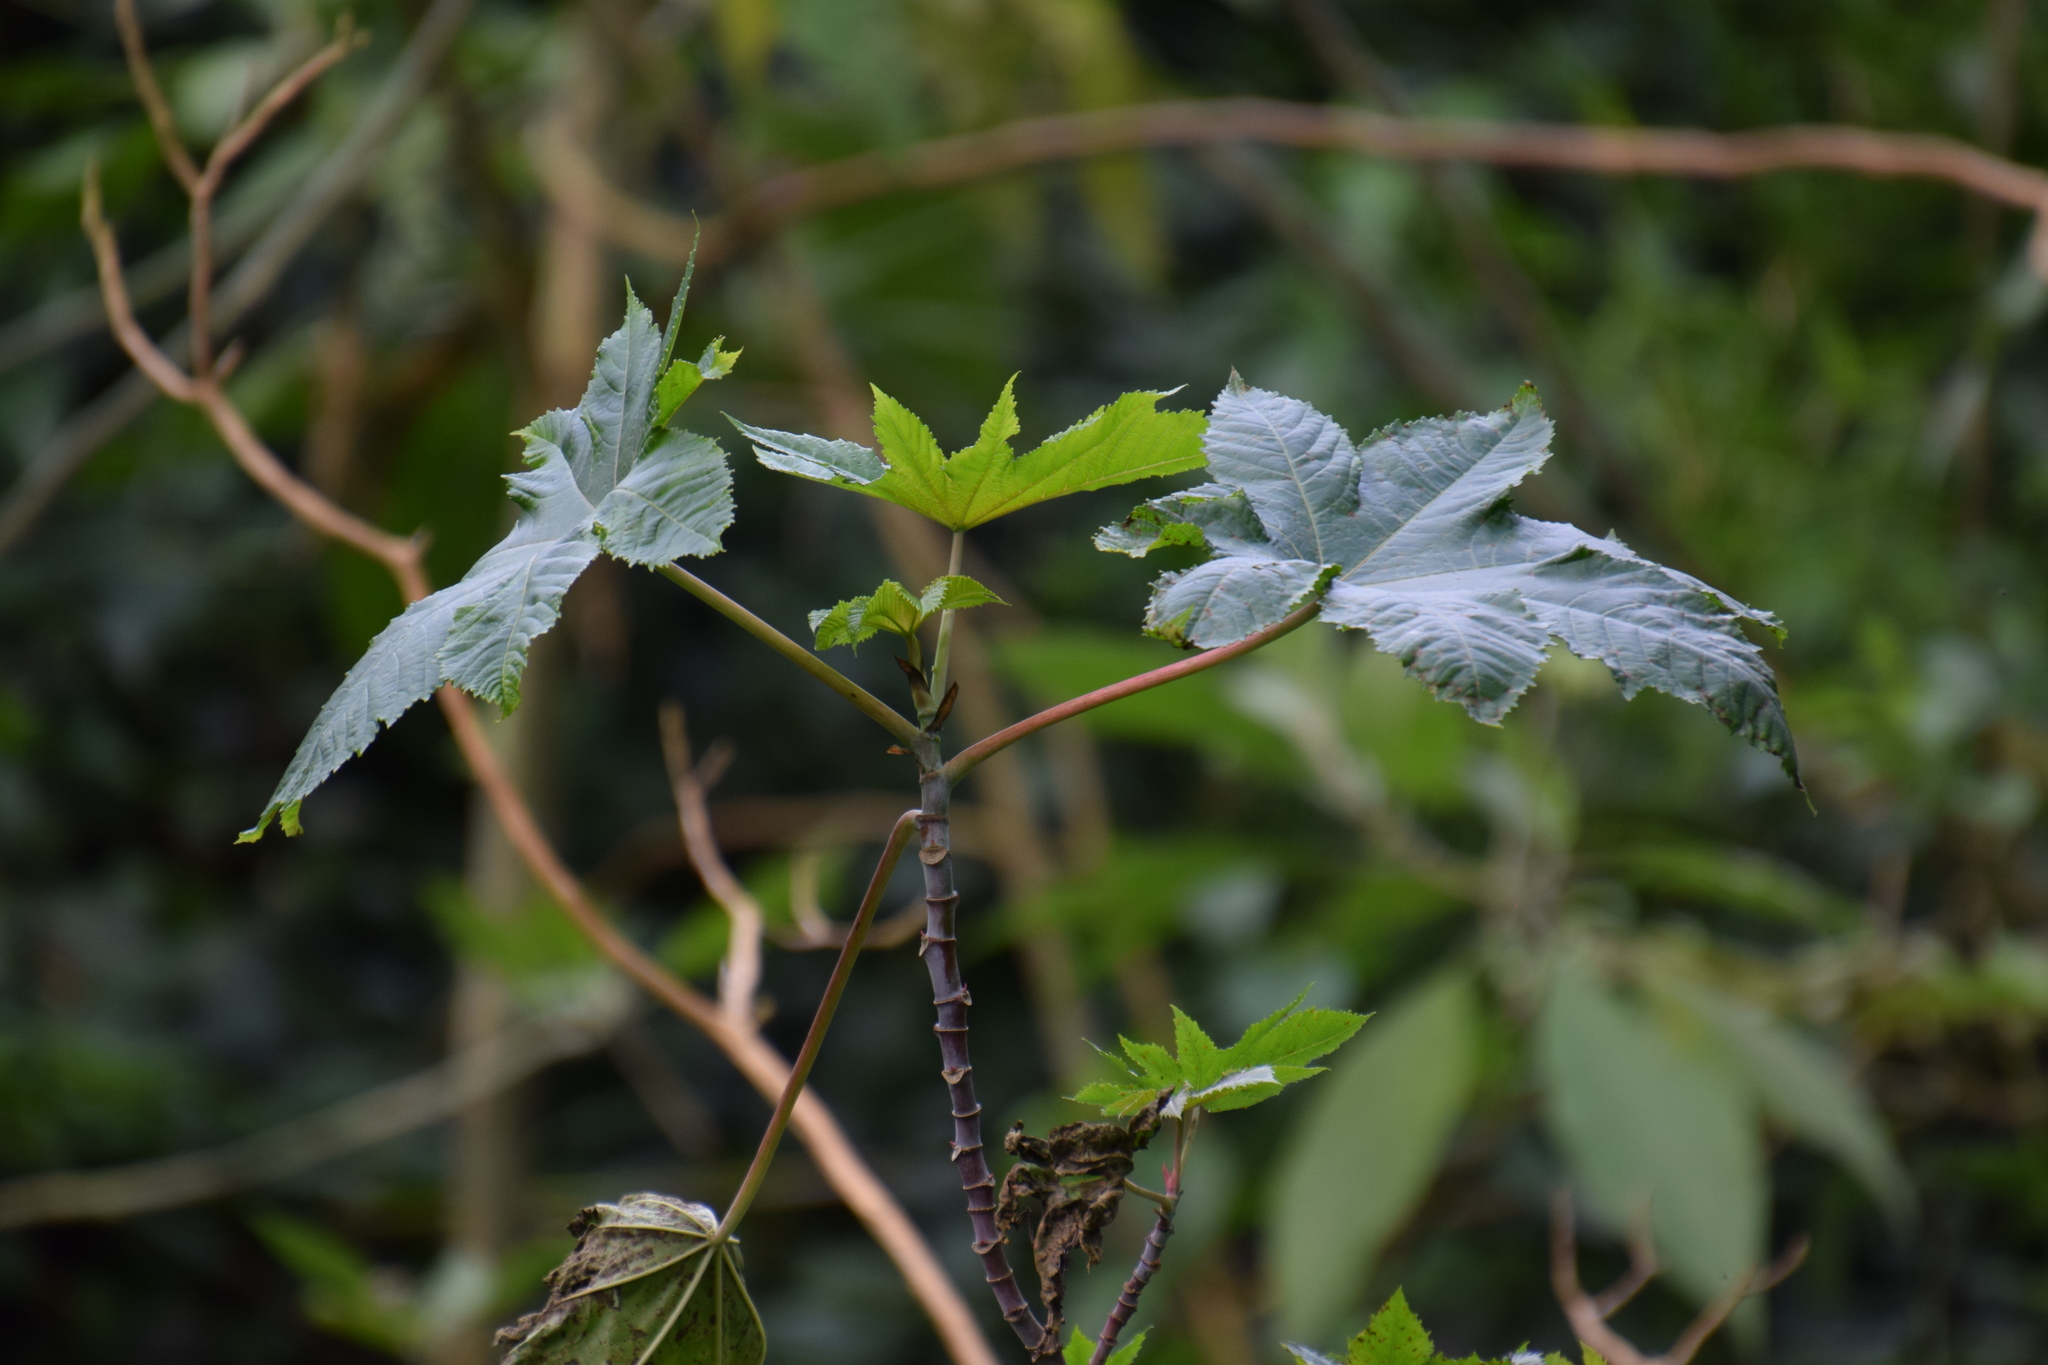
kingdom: Plantae
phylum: Tracheophyta
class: Magnoliopsida
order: Malpighiales
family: Euphorbiaceae
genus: Ricinus
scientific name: Ricinus communis
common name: Castor-oil-plant
